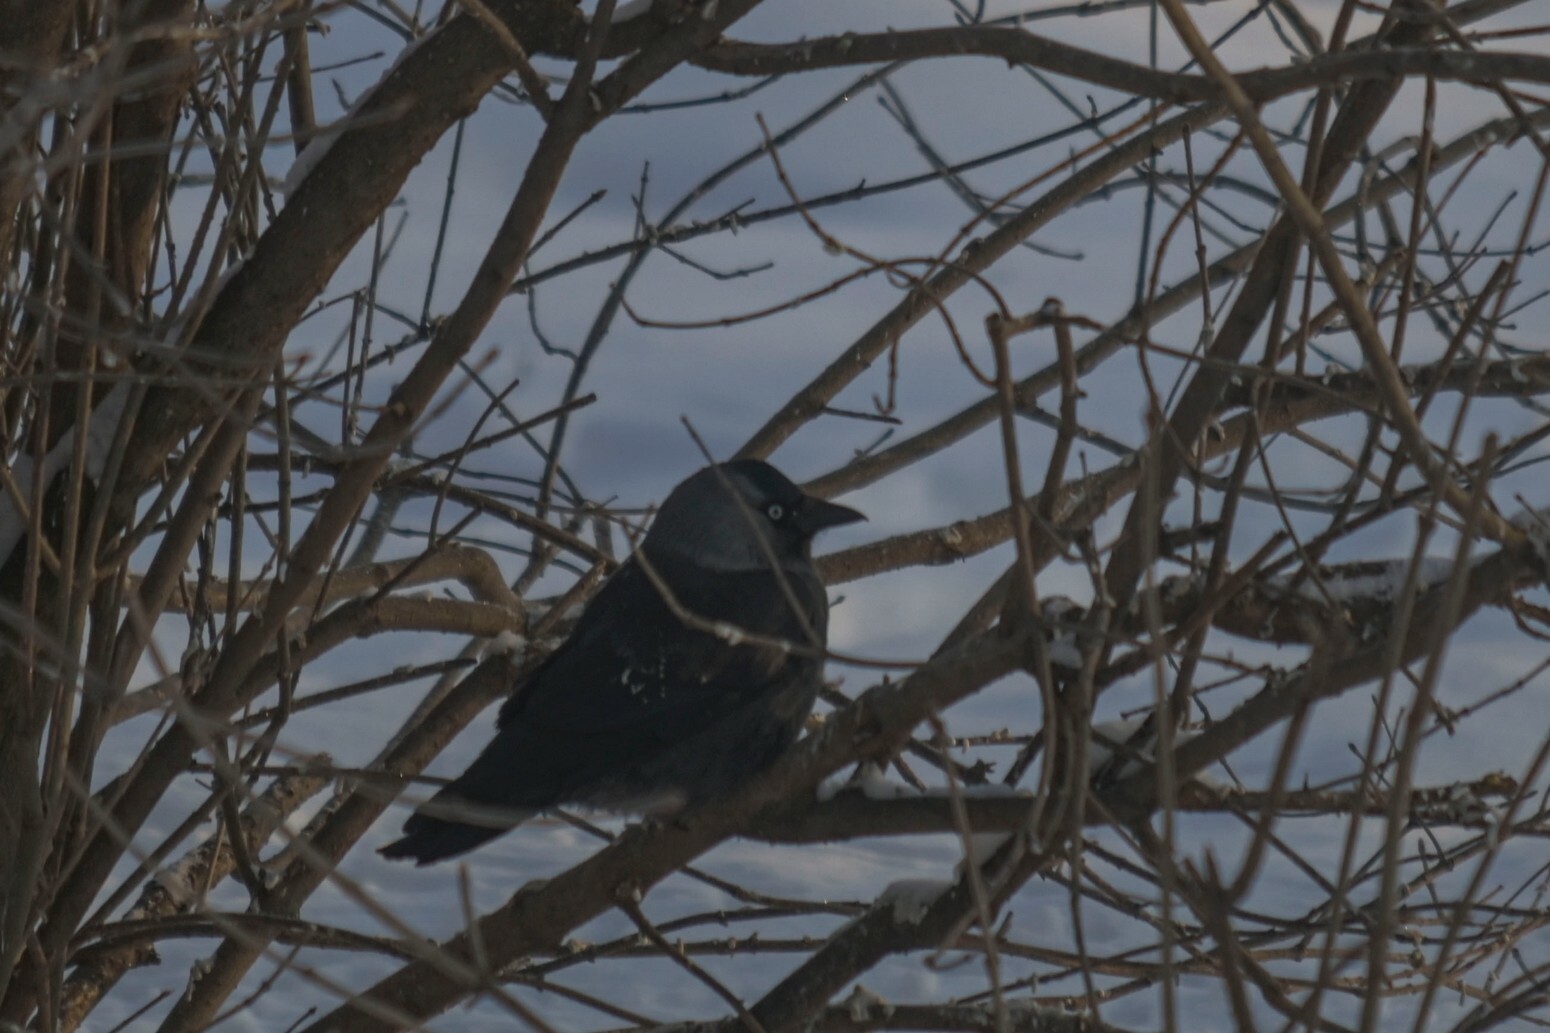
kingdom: Animalia
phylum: Chordata
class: Aves
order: Passeriformes
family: Corvidae
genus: Coloeus
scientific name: Coloeus monedula
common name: Western jackdaw
